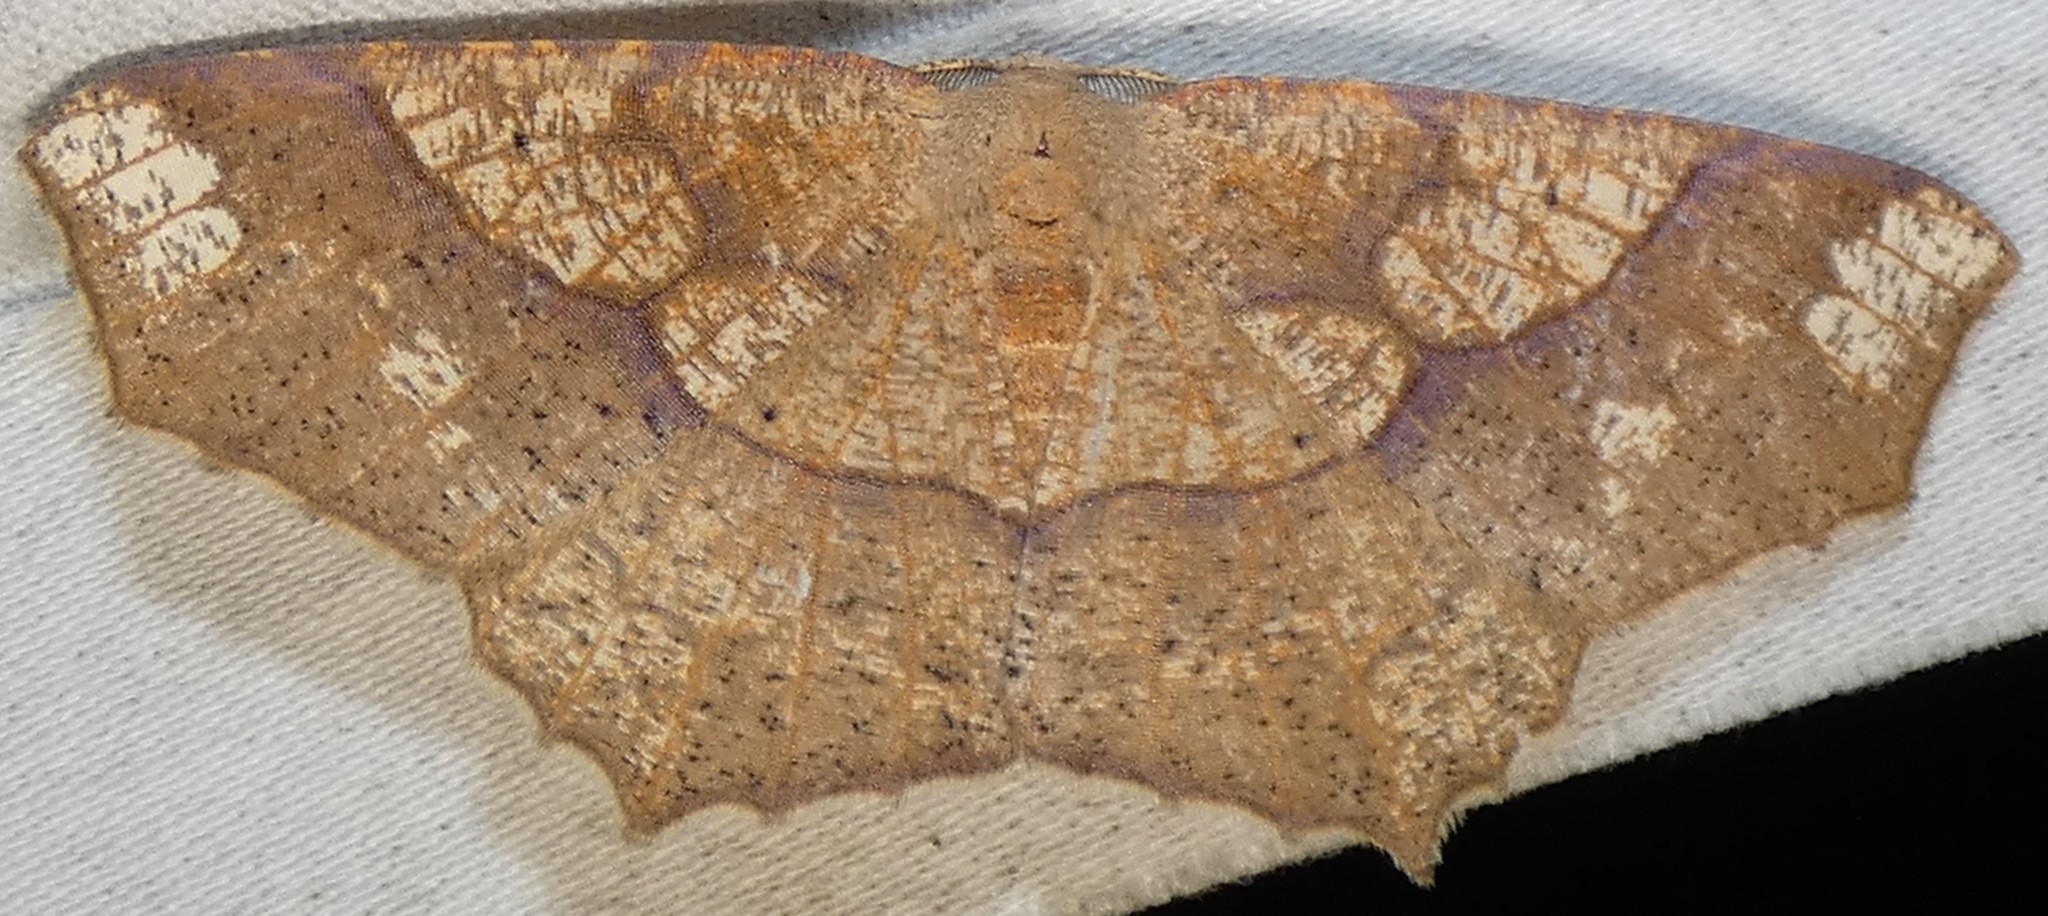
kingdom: Animalia
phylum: Arthropoda
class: Insecta
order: Lepidoptera
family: Geometridae
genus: Besma
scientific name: Besma quercivoraria
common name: Oak besma
